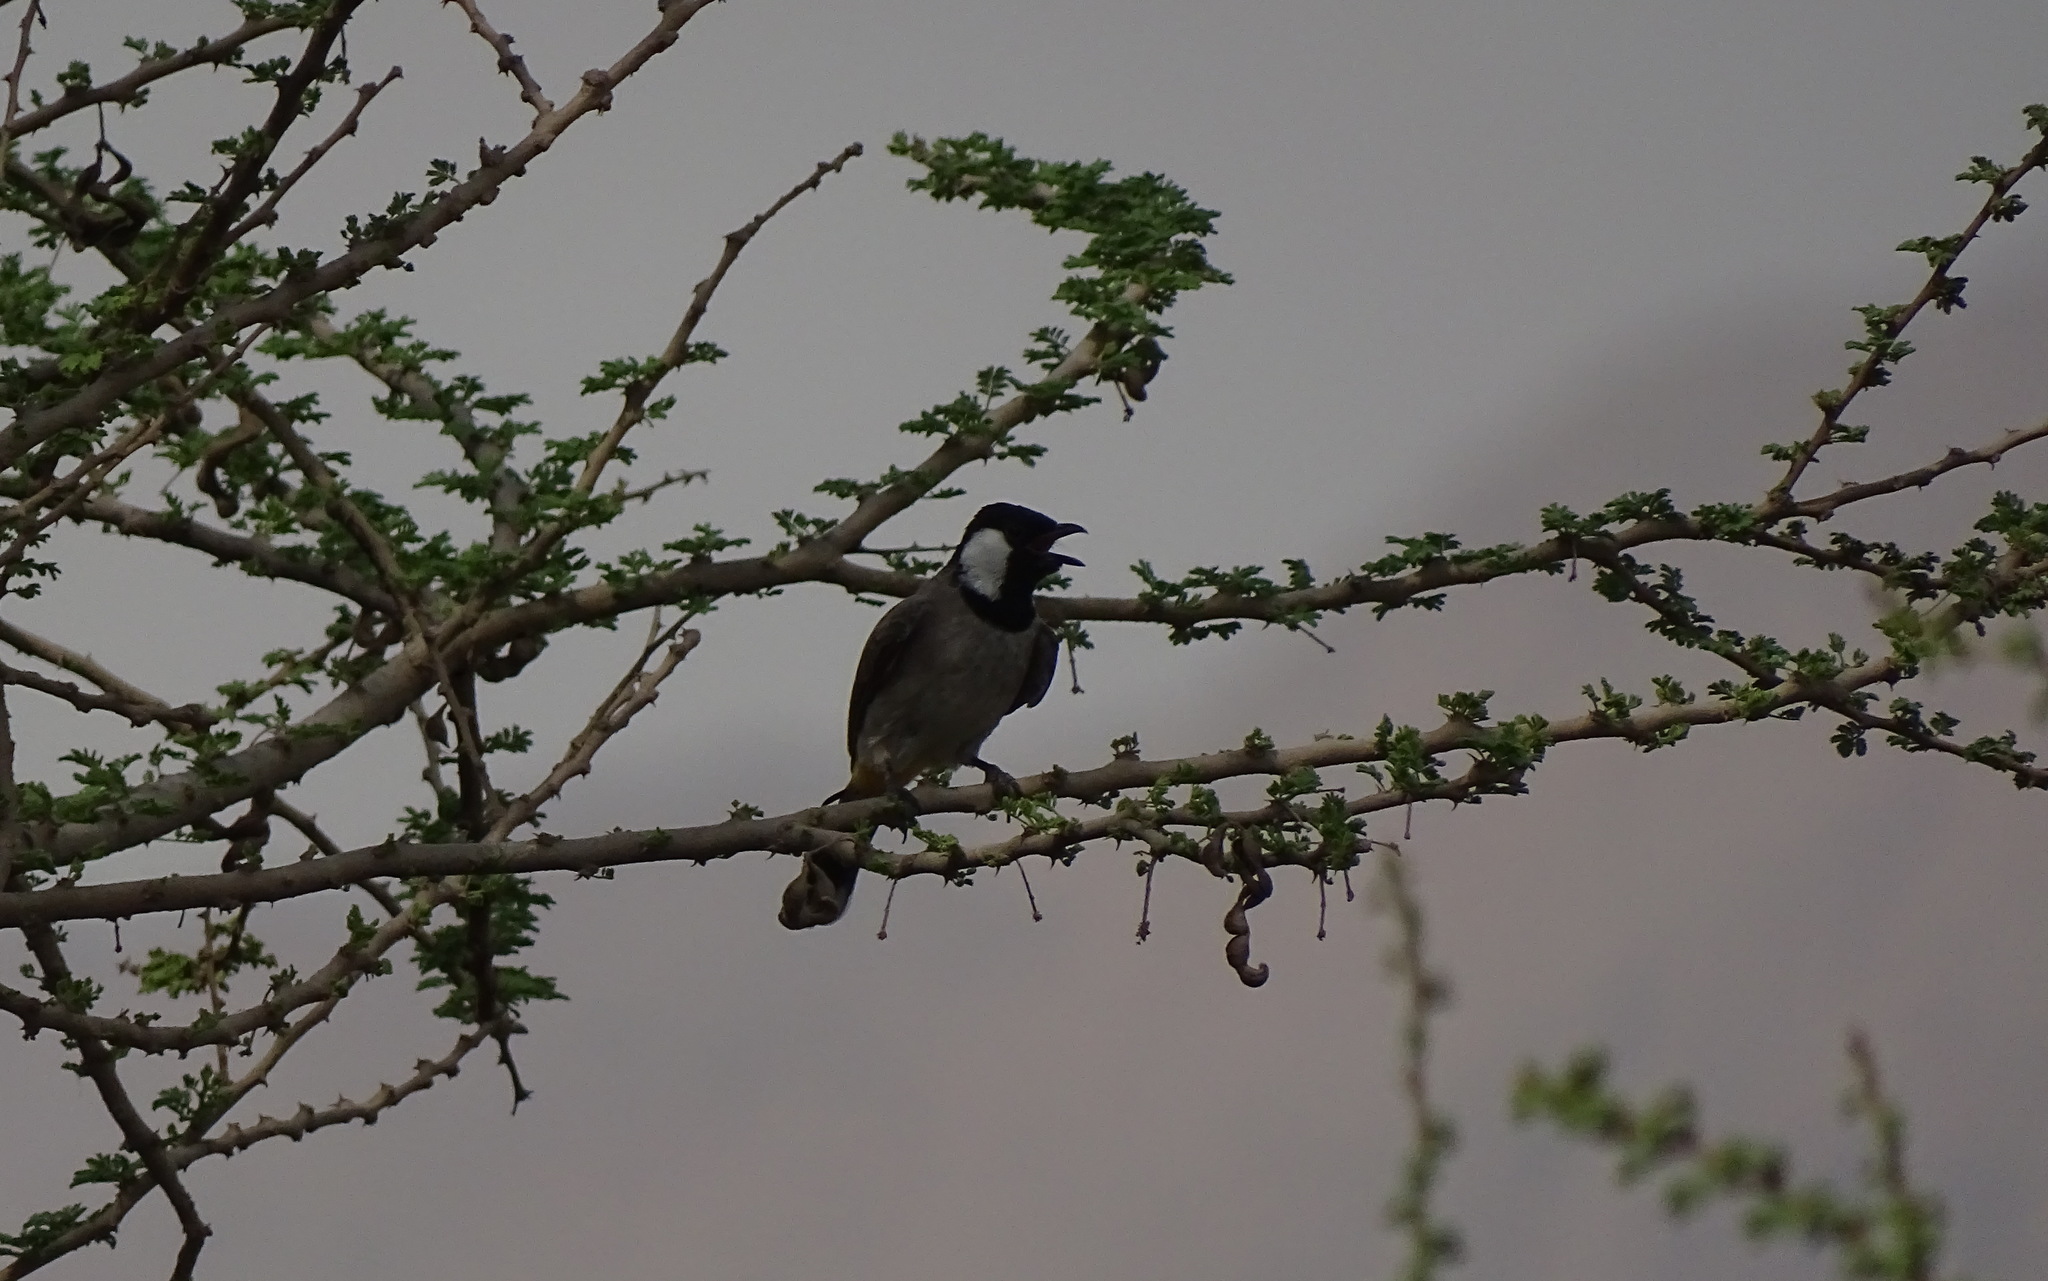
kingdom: Animalia
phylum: Chordata
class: Aves
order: Passeriformes
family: Pycnonotidae
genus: Pycnonotus
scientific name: Pycnonotus leucotis
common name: White-eared bulbul
